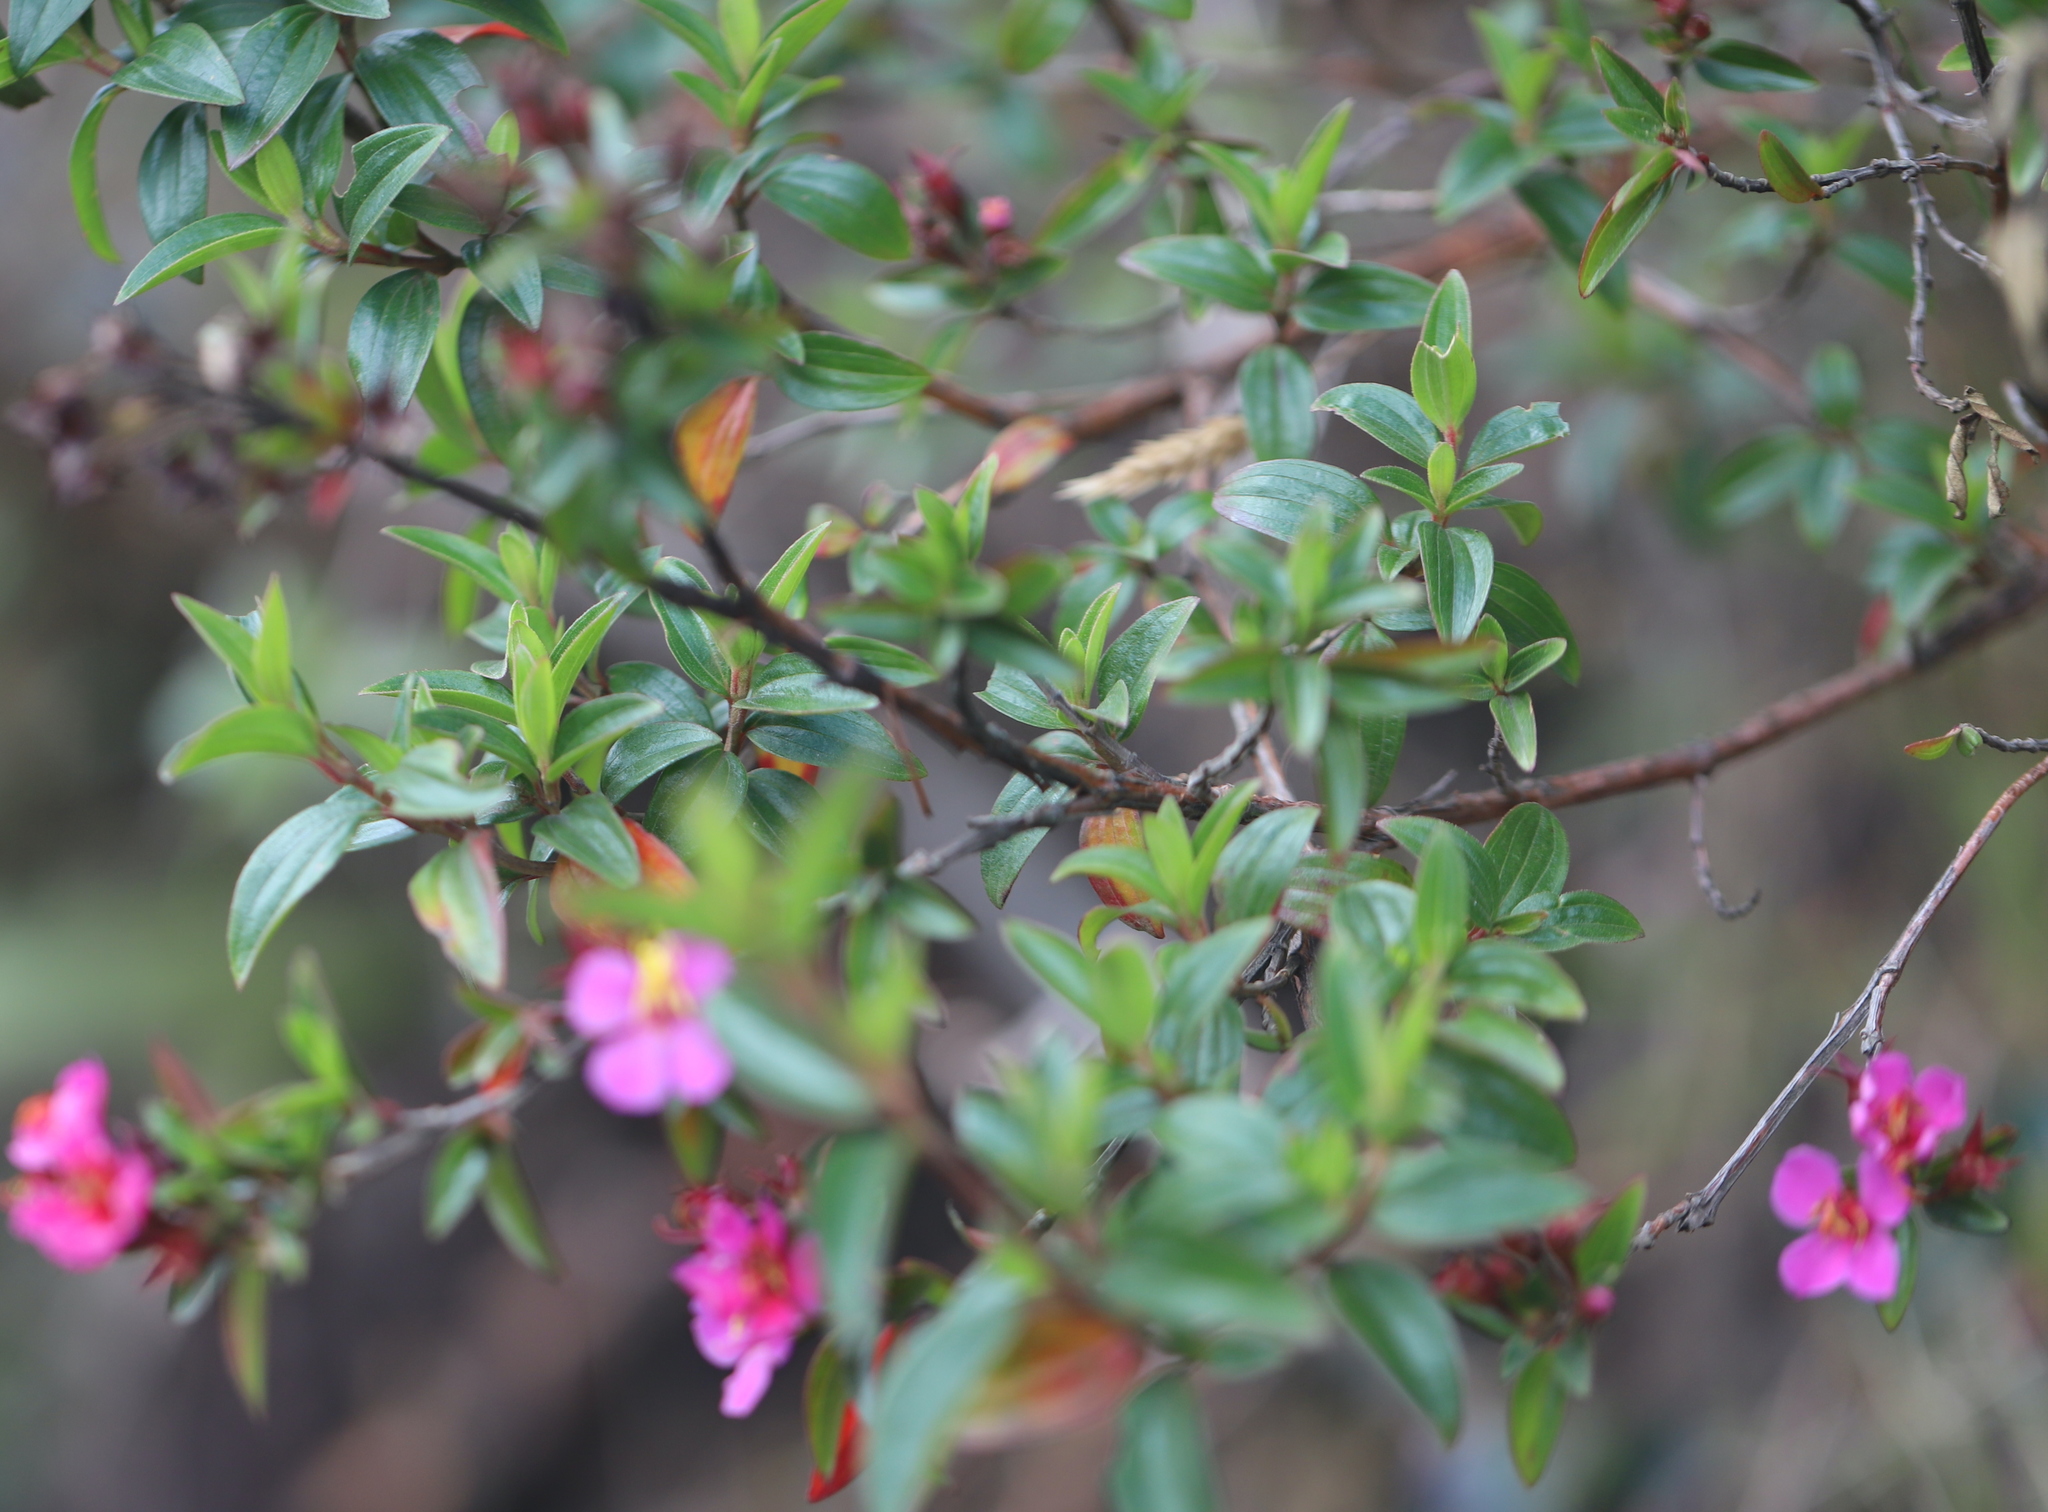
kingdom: Plantae
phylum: Tracheophyta
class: Magnoliopsida
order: Myrtales
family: Melastomataceae
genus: Monochaetum
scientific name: Monochaetum myrtoideum
